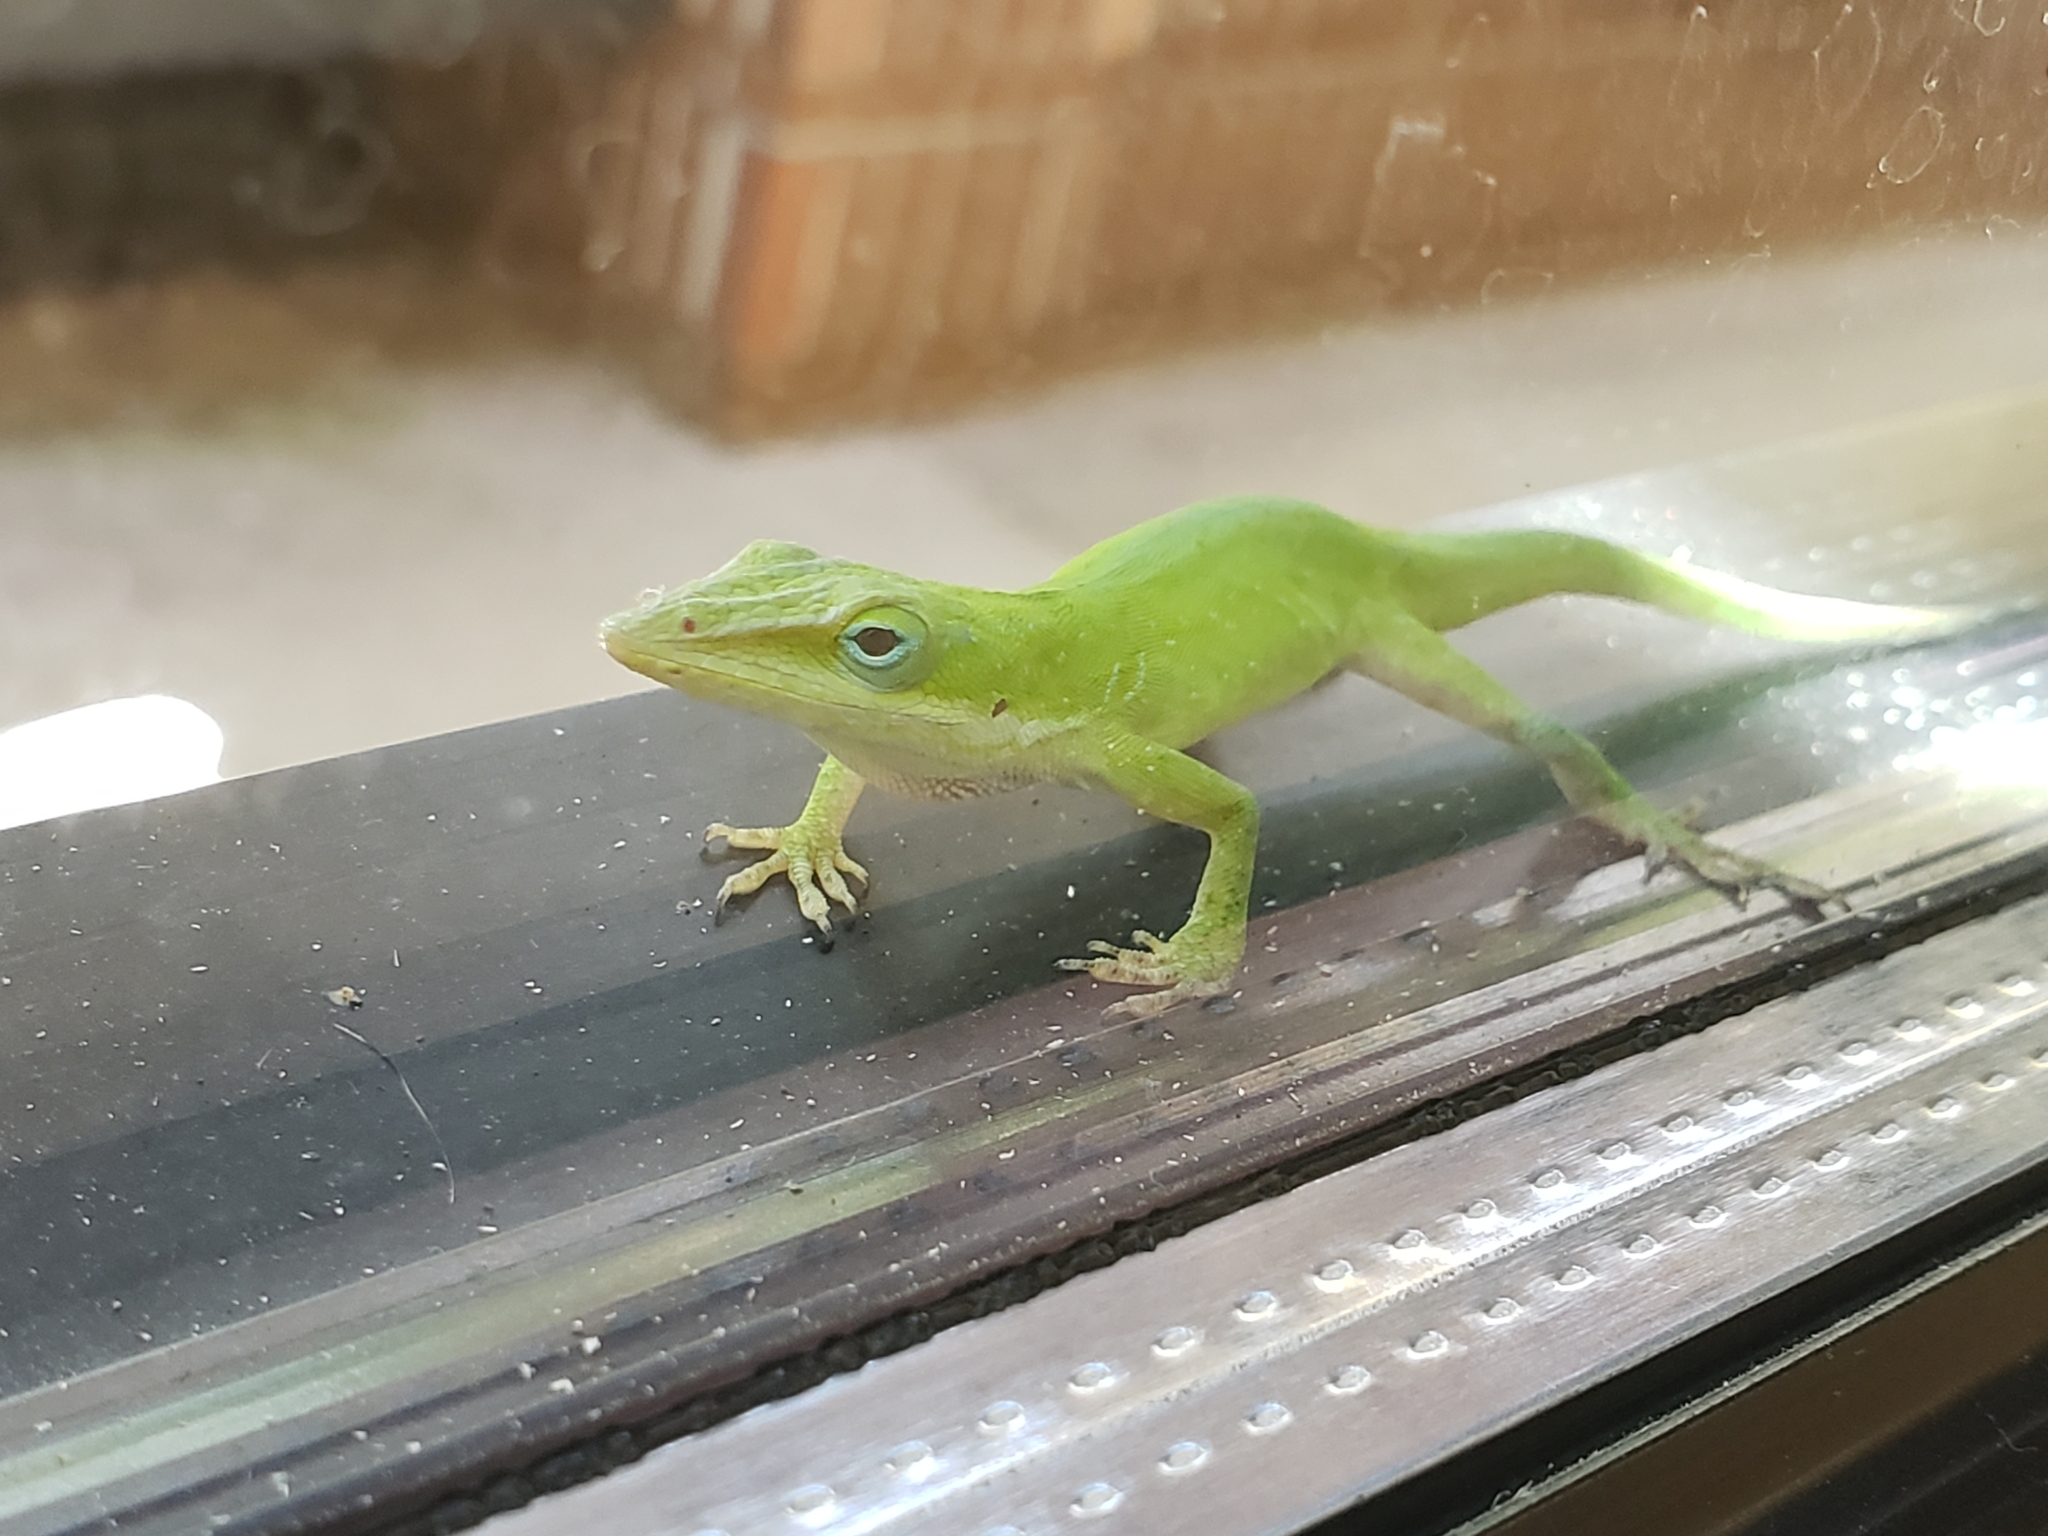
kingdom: Animalia
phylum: Chordata
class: Squamata
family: Dactyloidae
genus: Anolis
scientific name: Anolis carolinensis
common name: Green anole
